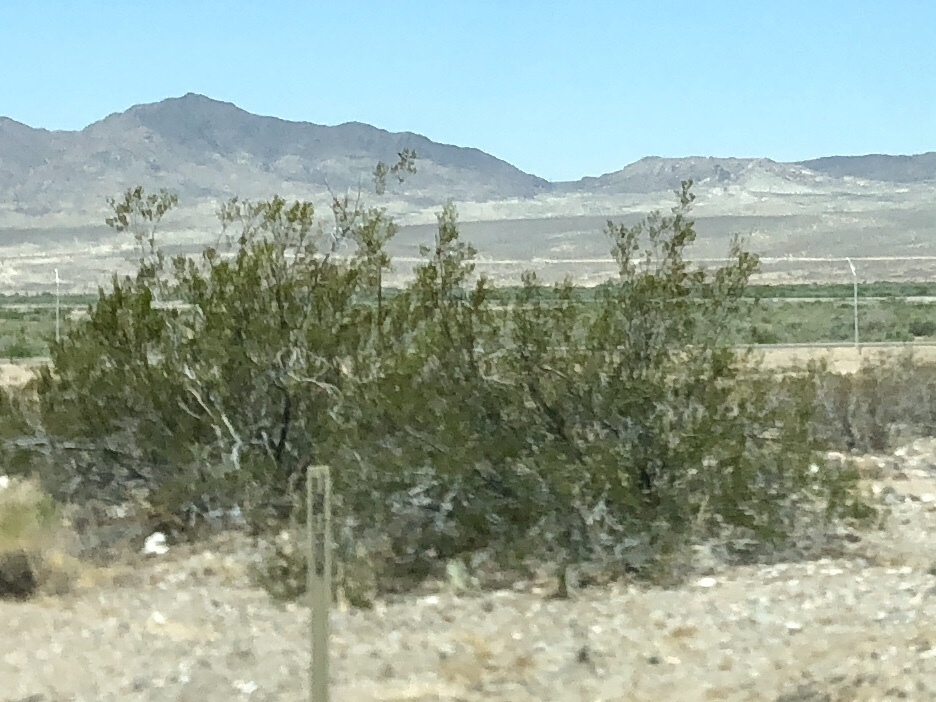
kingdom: Plantae
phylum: Tracheophyta
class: Magnoliopsida
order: Zygophyllales
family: Zygophyllaceae
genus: Larrea
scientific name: Larrea tridentata
